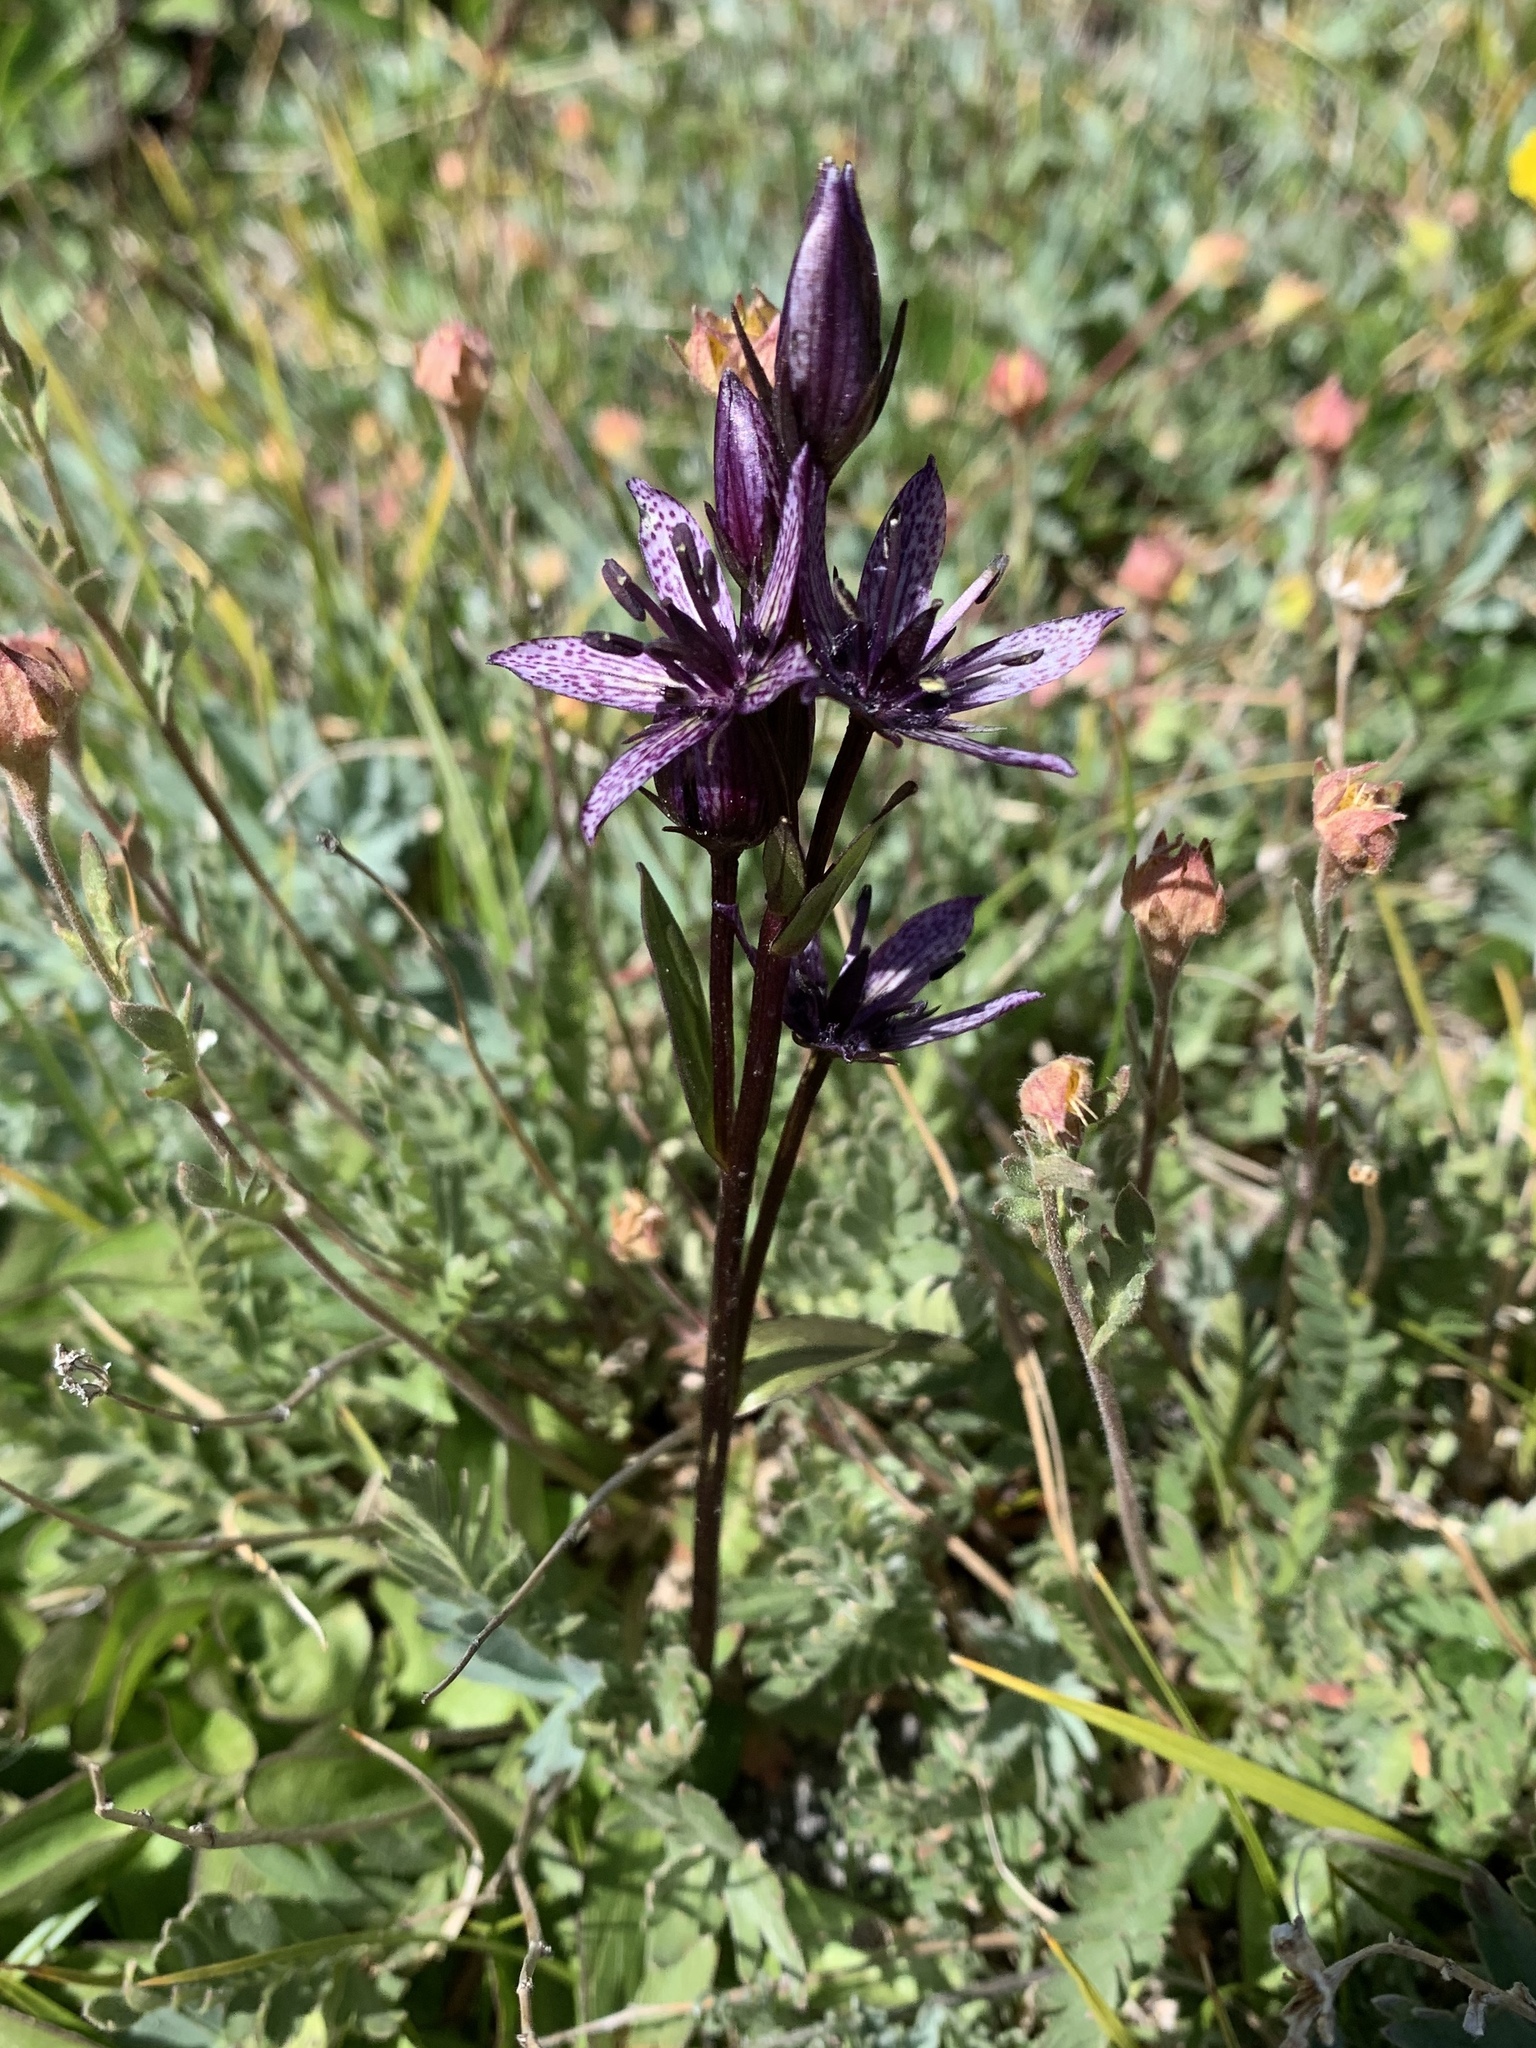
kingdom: Plantae
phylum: Tracheophyta
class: Magnoliopsida
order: Gentianales
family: Gentianaceae
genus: Swertia
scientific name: Swertia perennis
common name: Alpine bog swertia
